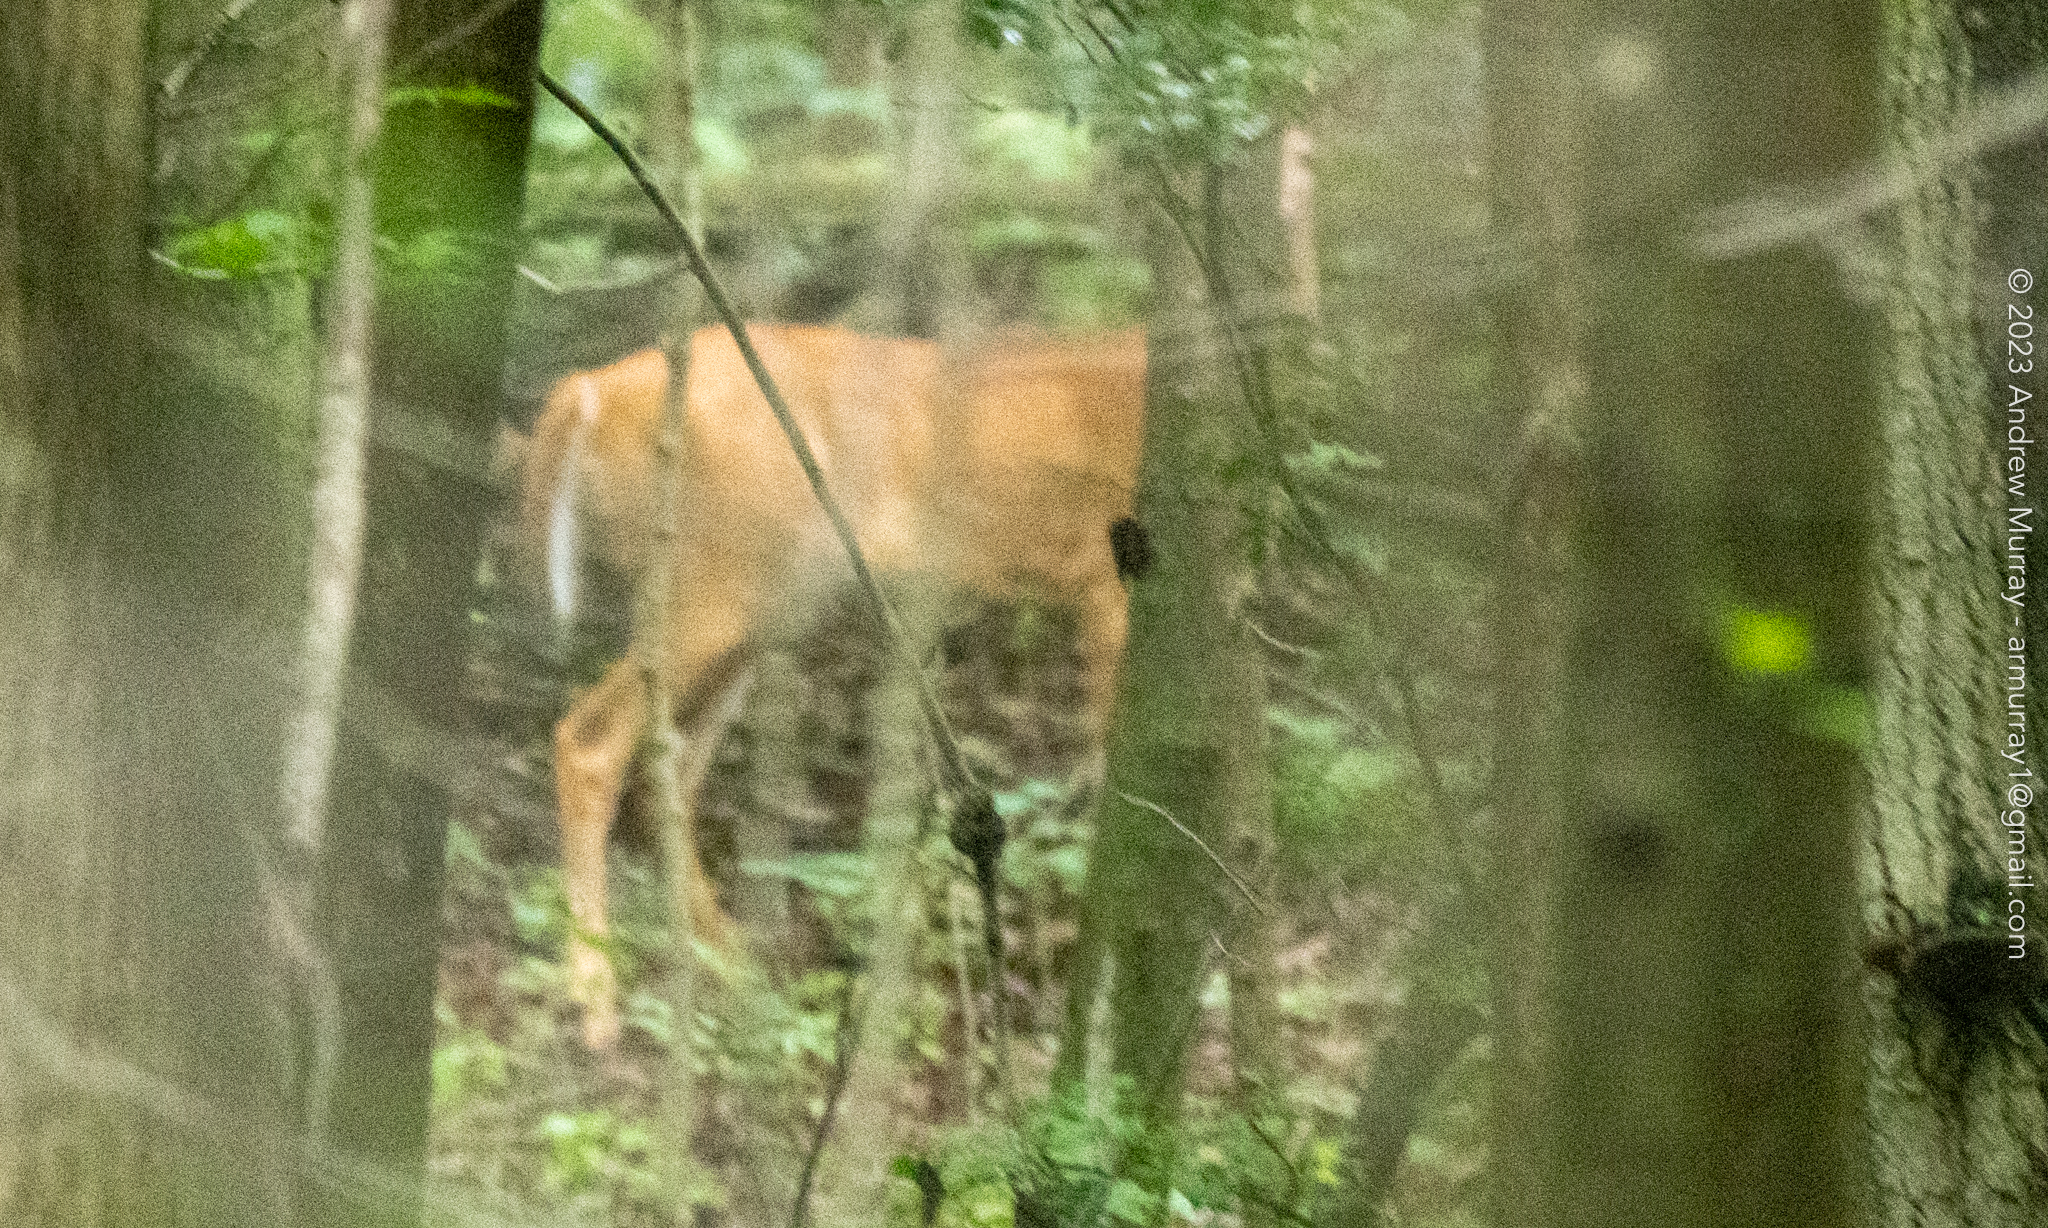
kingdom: Animalia
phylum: Chordata
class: Mammalia
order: Artiodactyla
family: Cervidae
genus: Odocoileus
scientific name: Odocoileus virginianus
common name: White-tailed deer
